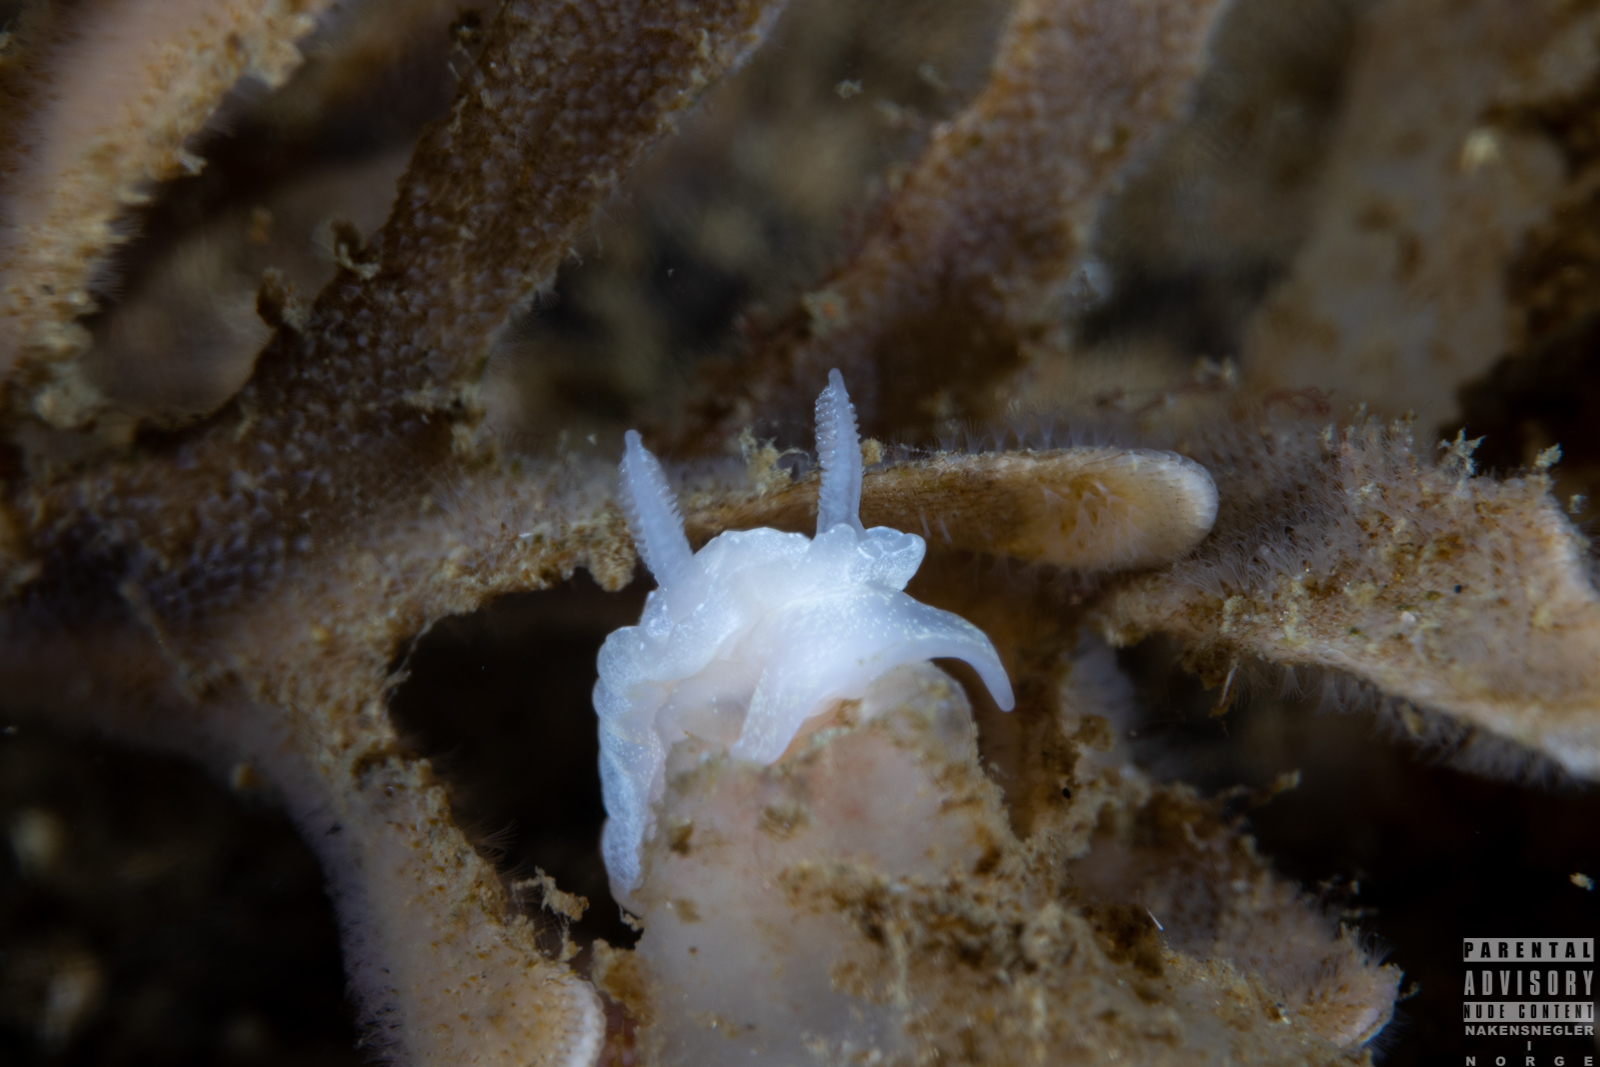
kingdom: Animalia
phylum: Mollusca
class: Gastropoda
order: Nudibranchia
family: Goniodorididae
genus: Okenia
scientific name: Okenia
